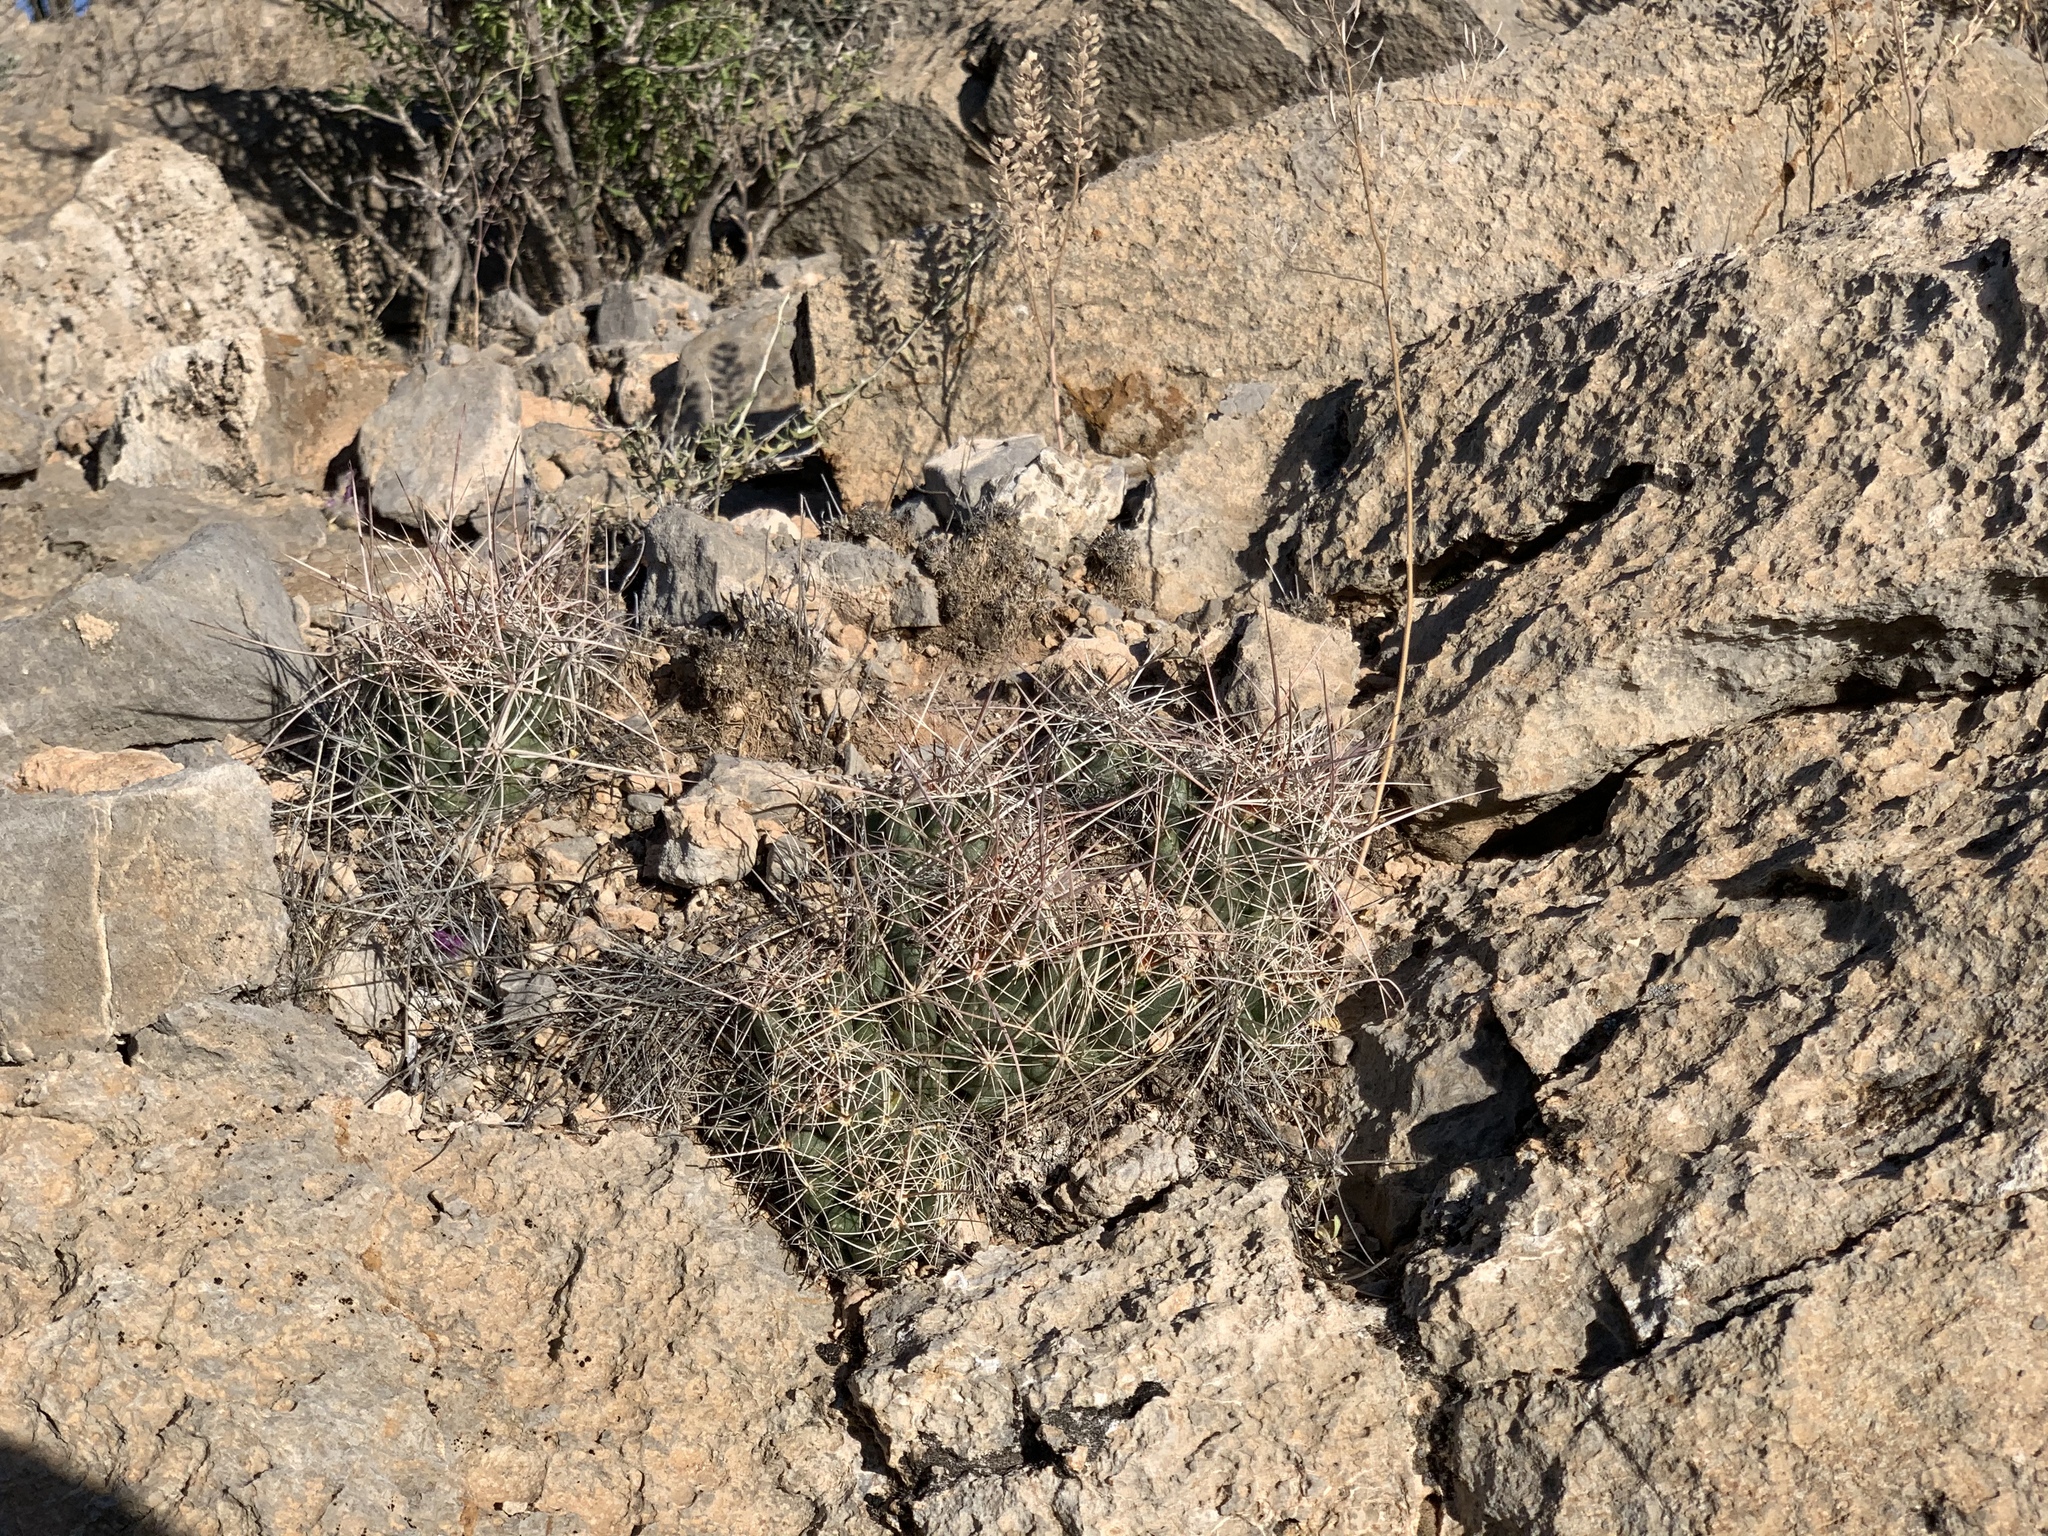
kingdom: Plantae
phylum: Tracheophyta
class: Magnoliopsida
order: Caryophyllales
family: Cactaceae
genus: Coryphantha
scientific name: Coryphantha macromeris
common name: Nipple beehive cactus
